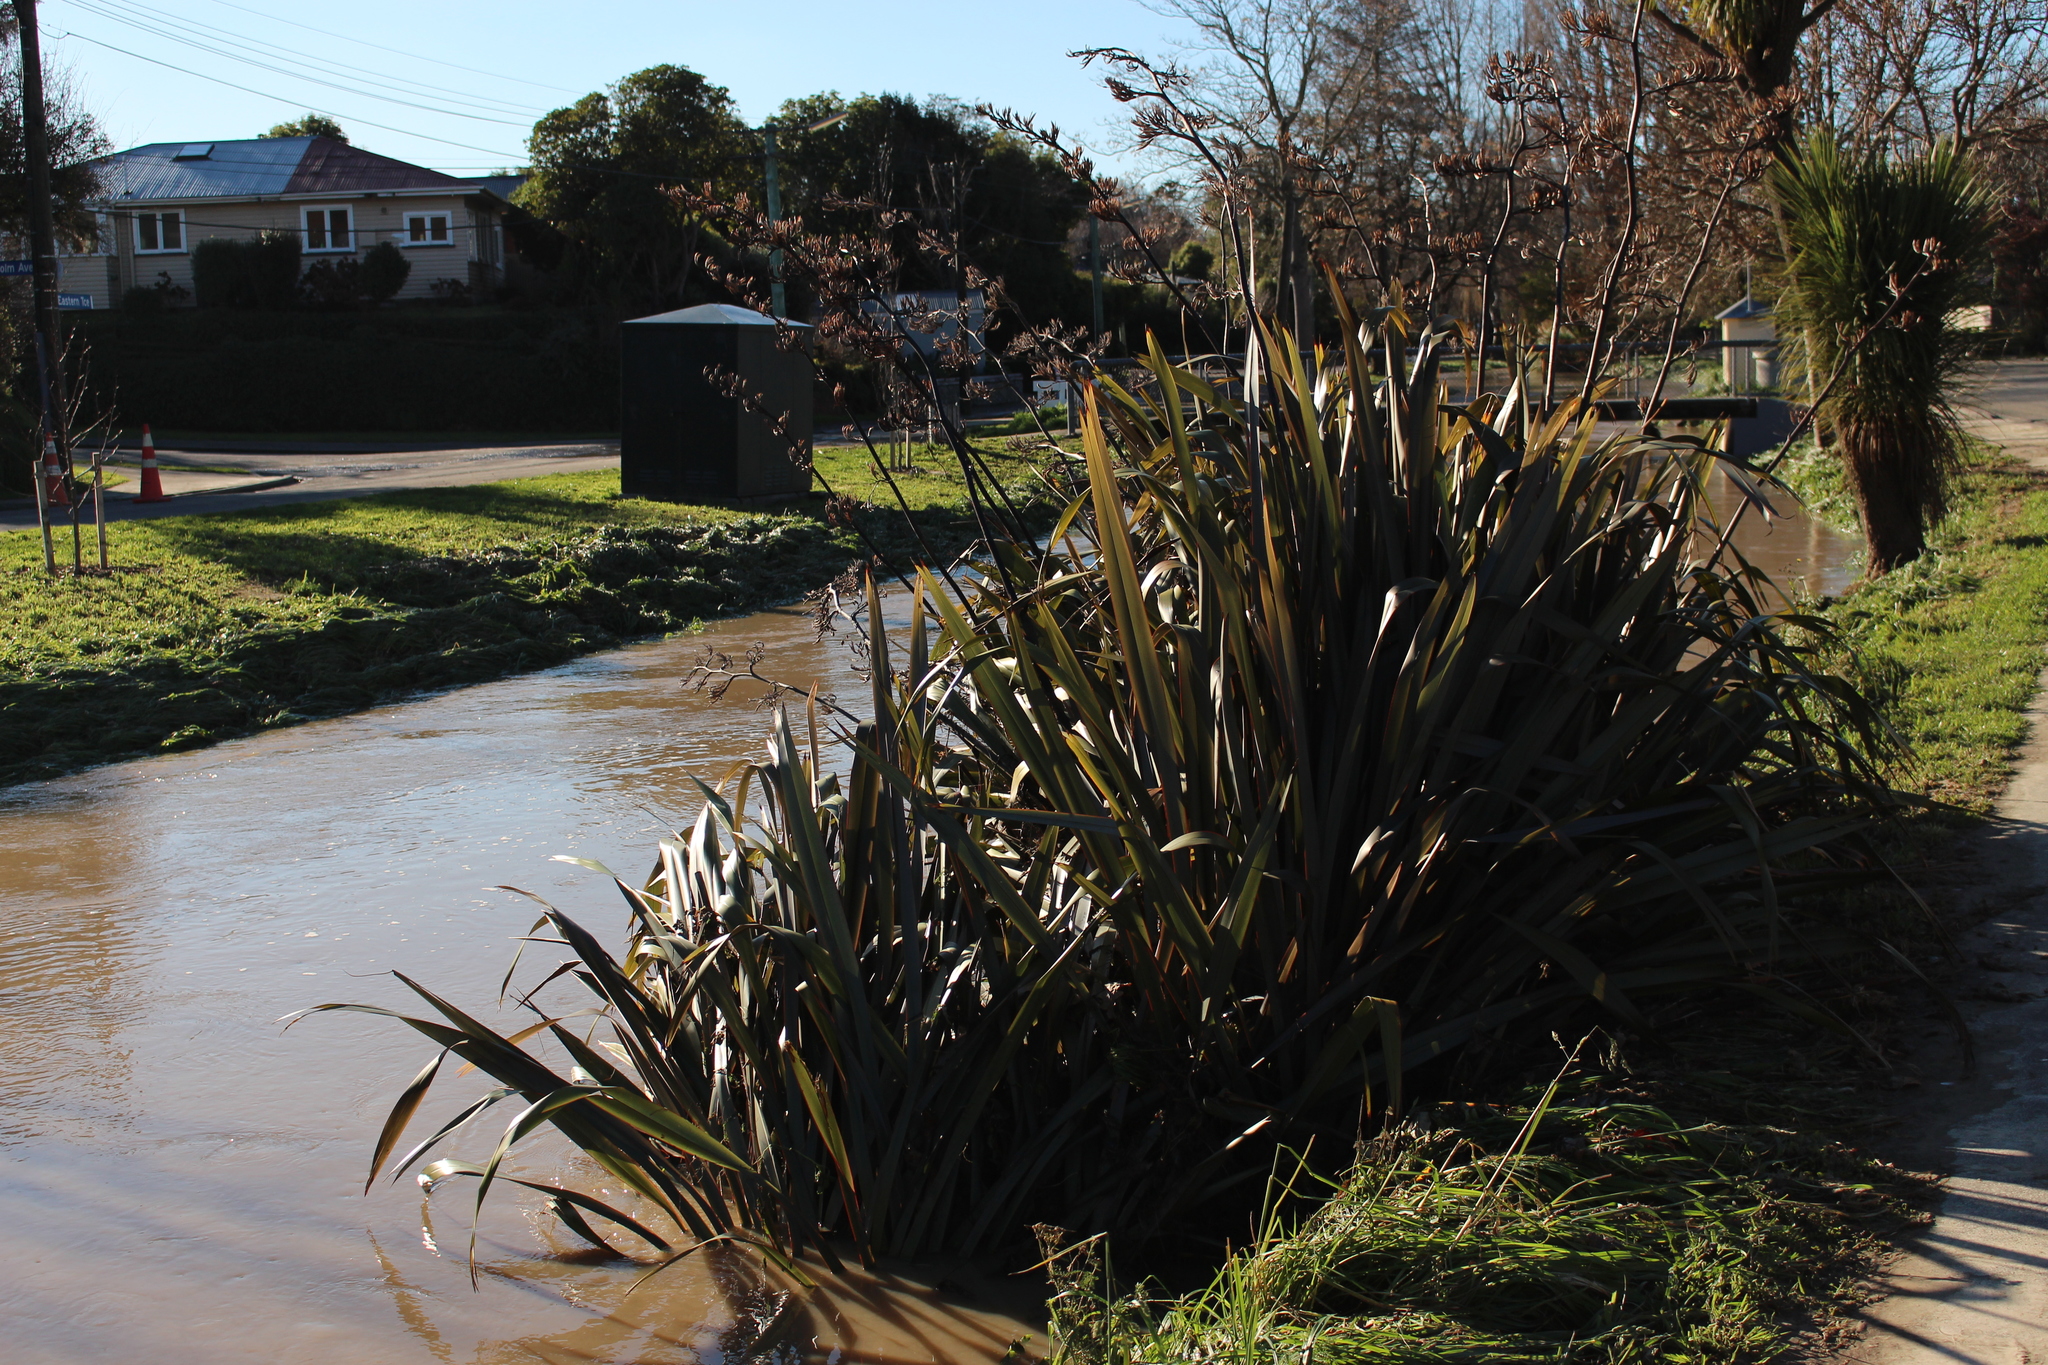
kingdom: Plantae
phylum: Tracheophyta
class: Liliopsida
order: Asparagales
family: Asphodelaceae
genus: Phormium
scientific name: Phormium tenax
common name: New zealand flax
